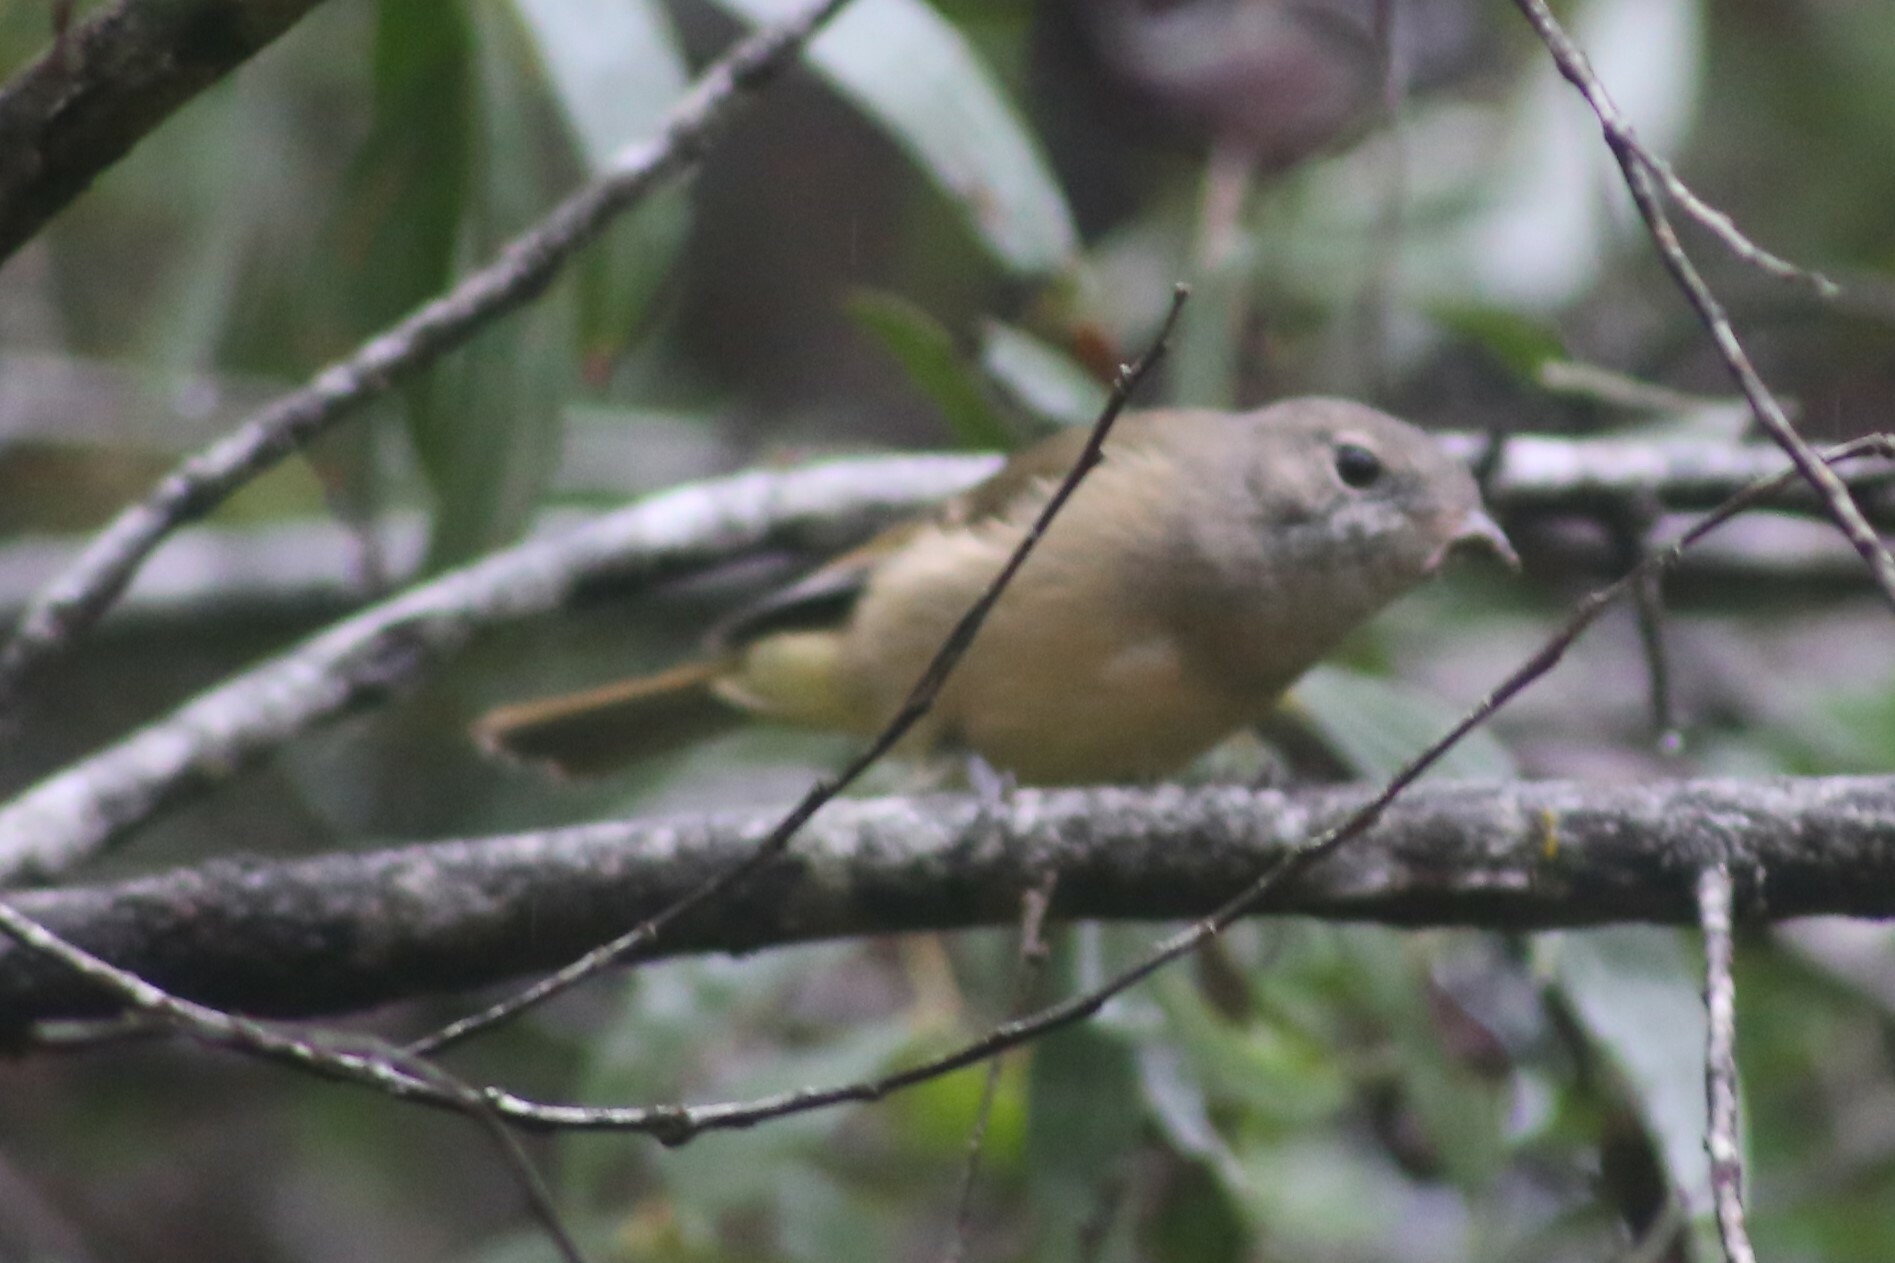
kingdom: Animalia
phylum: Chordata
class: Aves
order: Passeriformes
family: Pachycephalidae
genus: Pachycephala
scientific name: Pachycephala pectoralis
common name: Australian golden whistler
